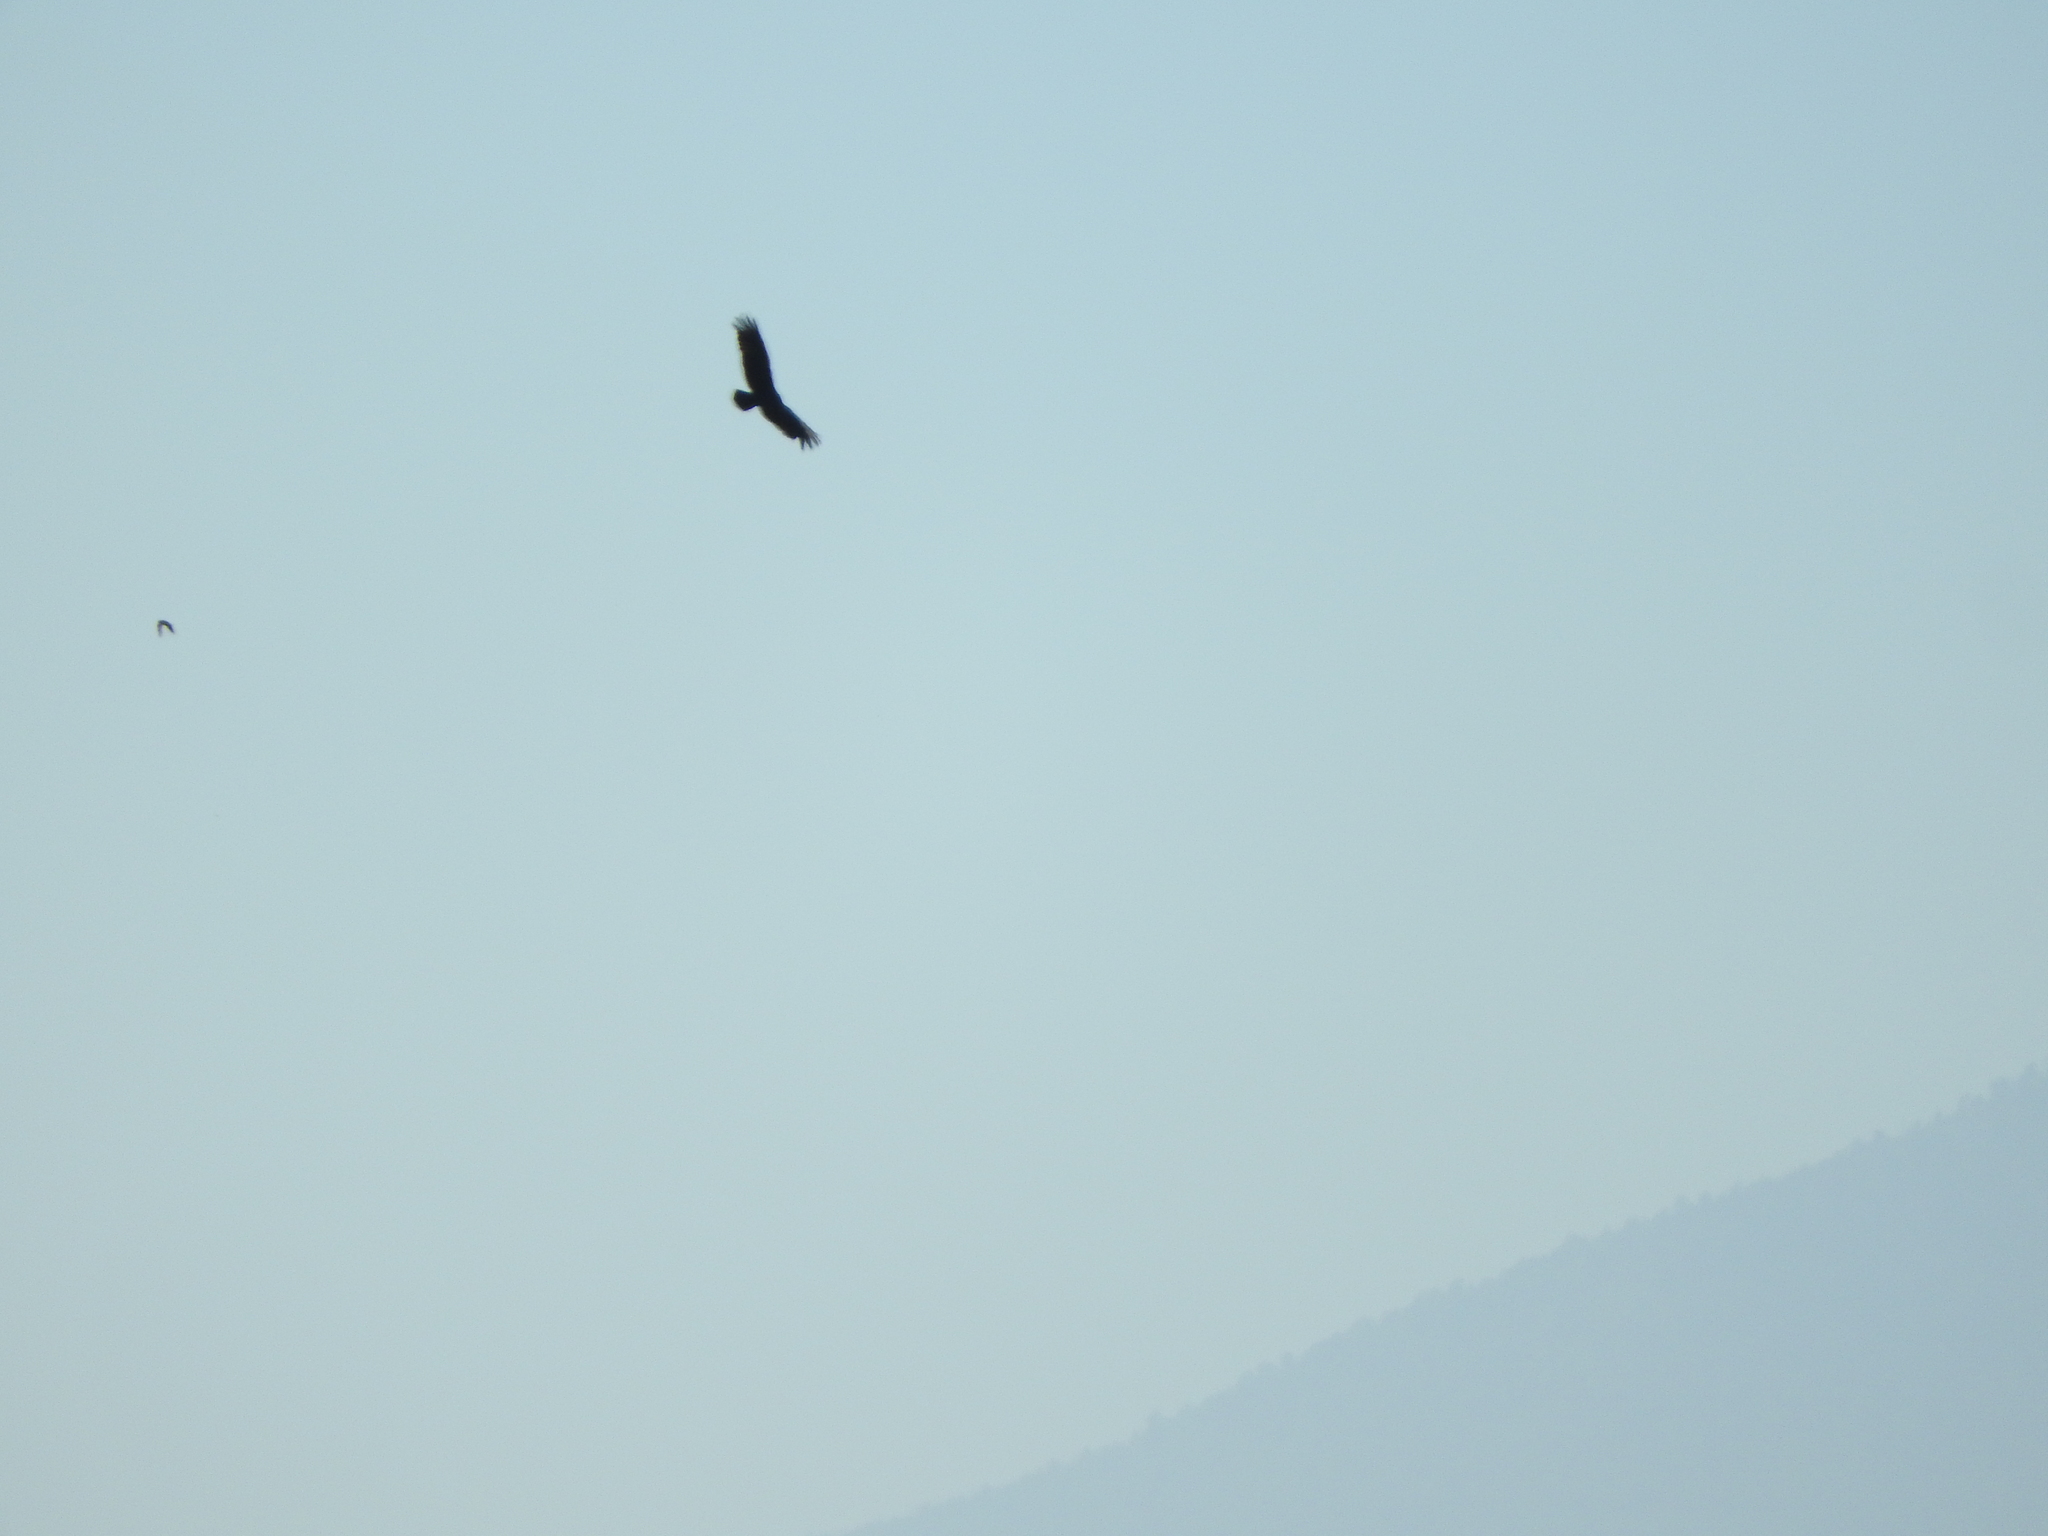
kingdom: Animalia
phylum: Chordata
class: Aves
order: Accipitriformes
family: Cathartidae
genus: Cathartes
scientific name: Cathartes aura
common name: Turkey vulture
